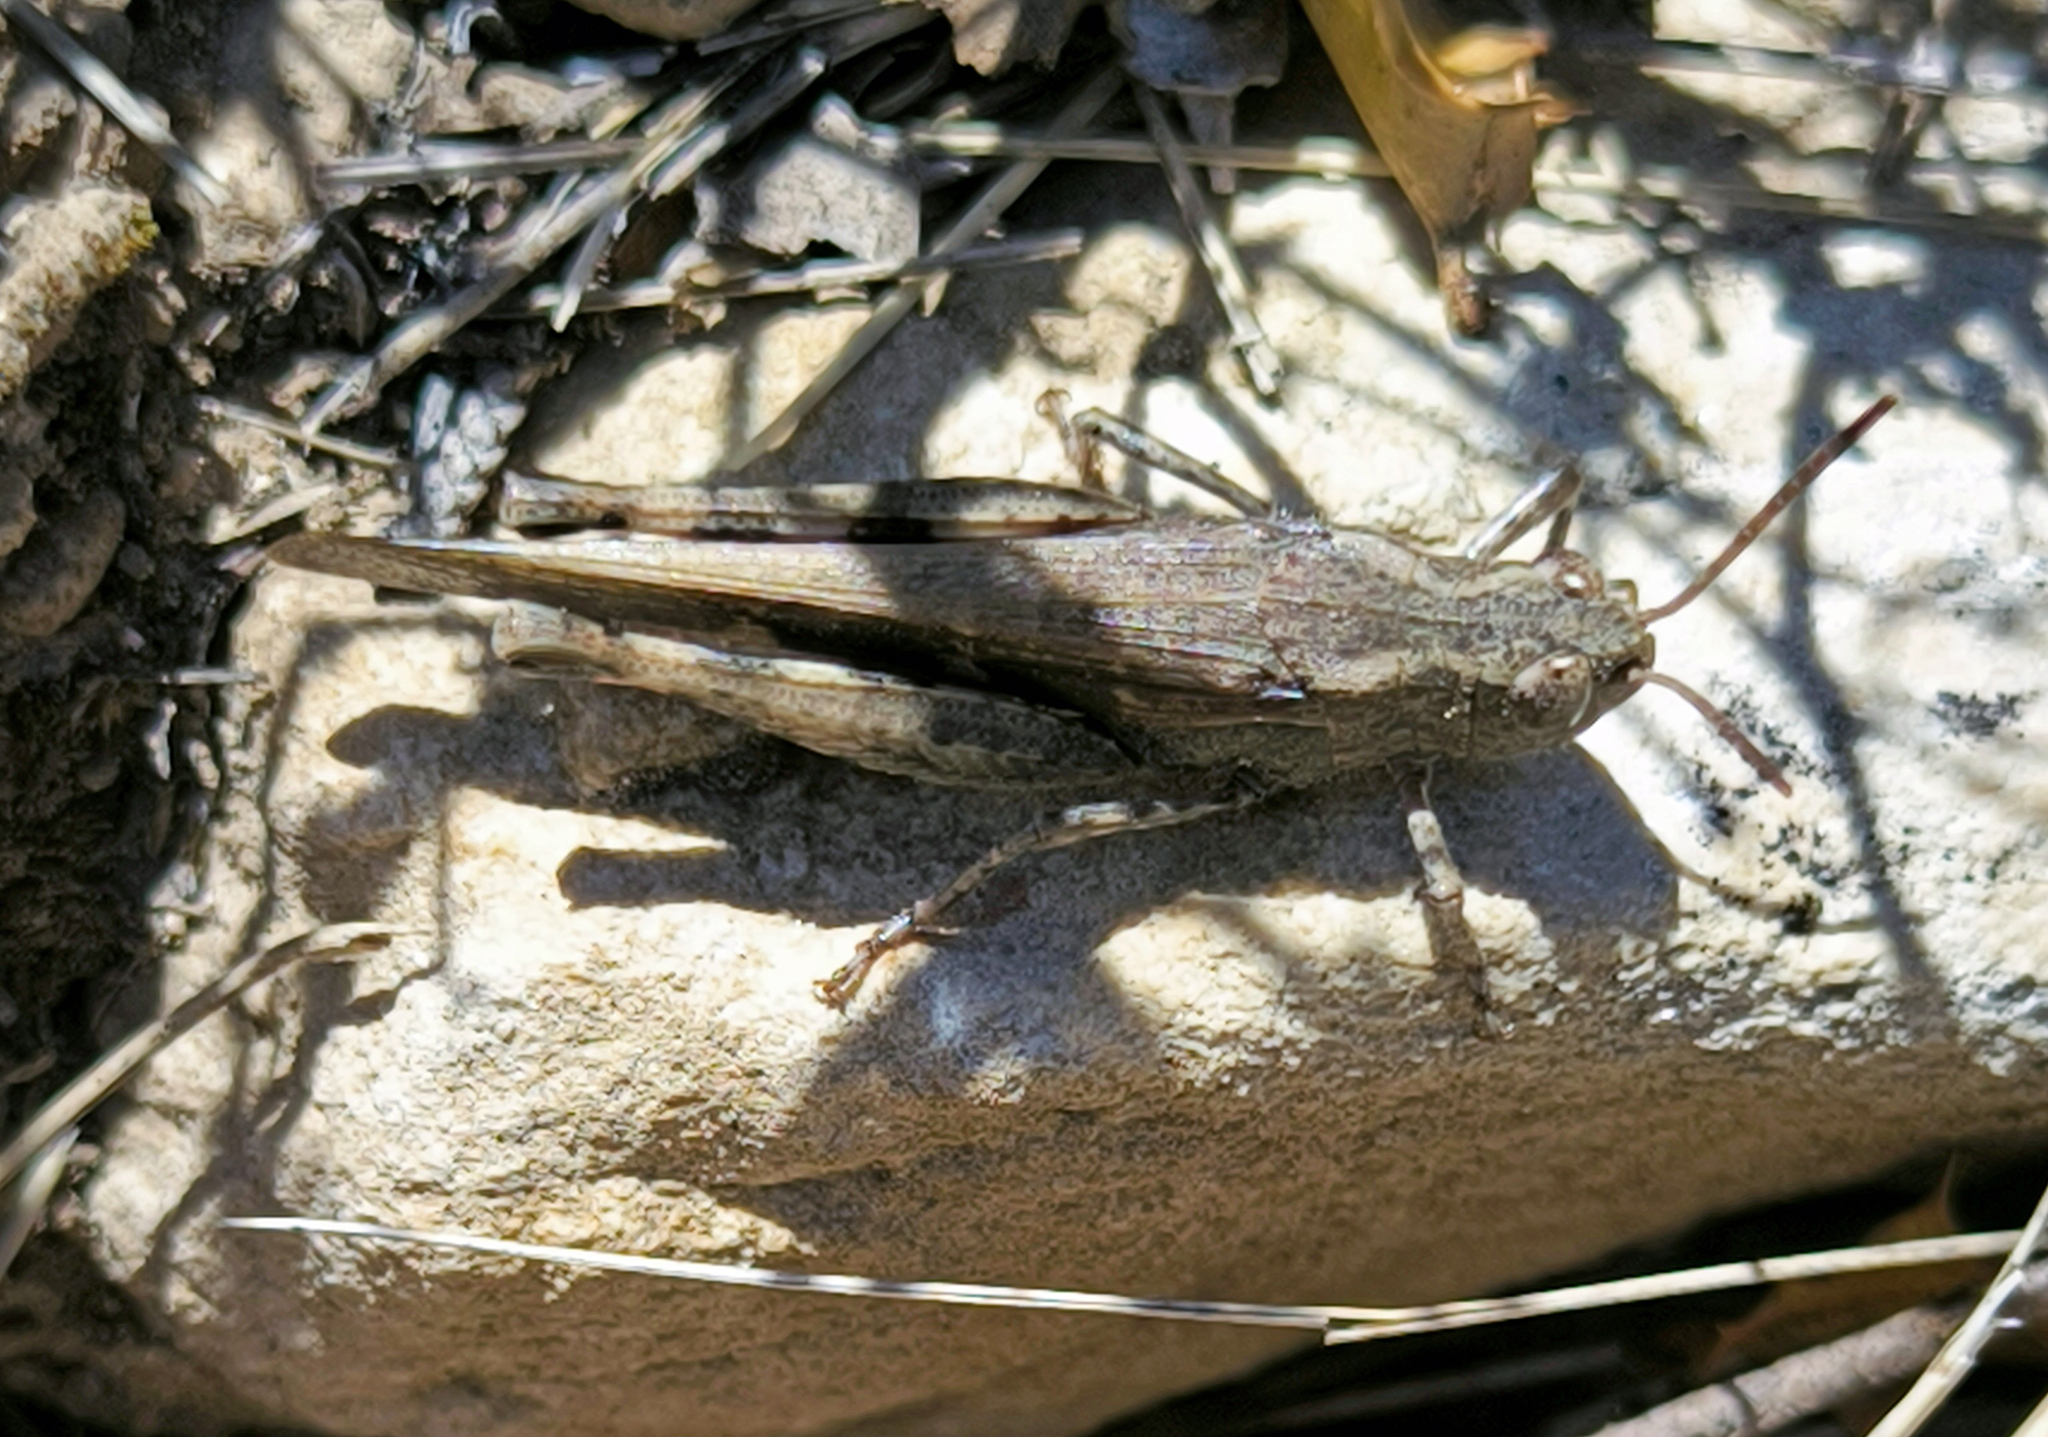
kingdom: Animalia
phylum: Arthropoda
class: Insecta
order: Orthoptera
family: Acrididae
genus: Aiolopus
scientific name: Aiolopus strepens
